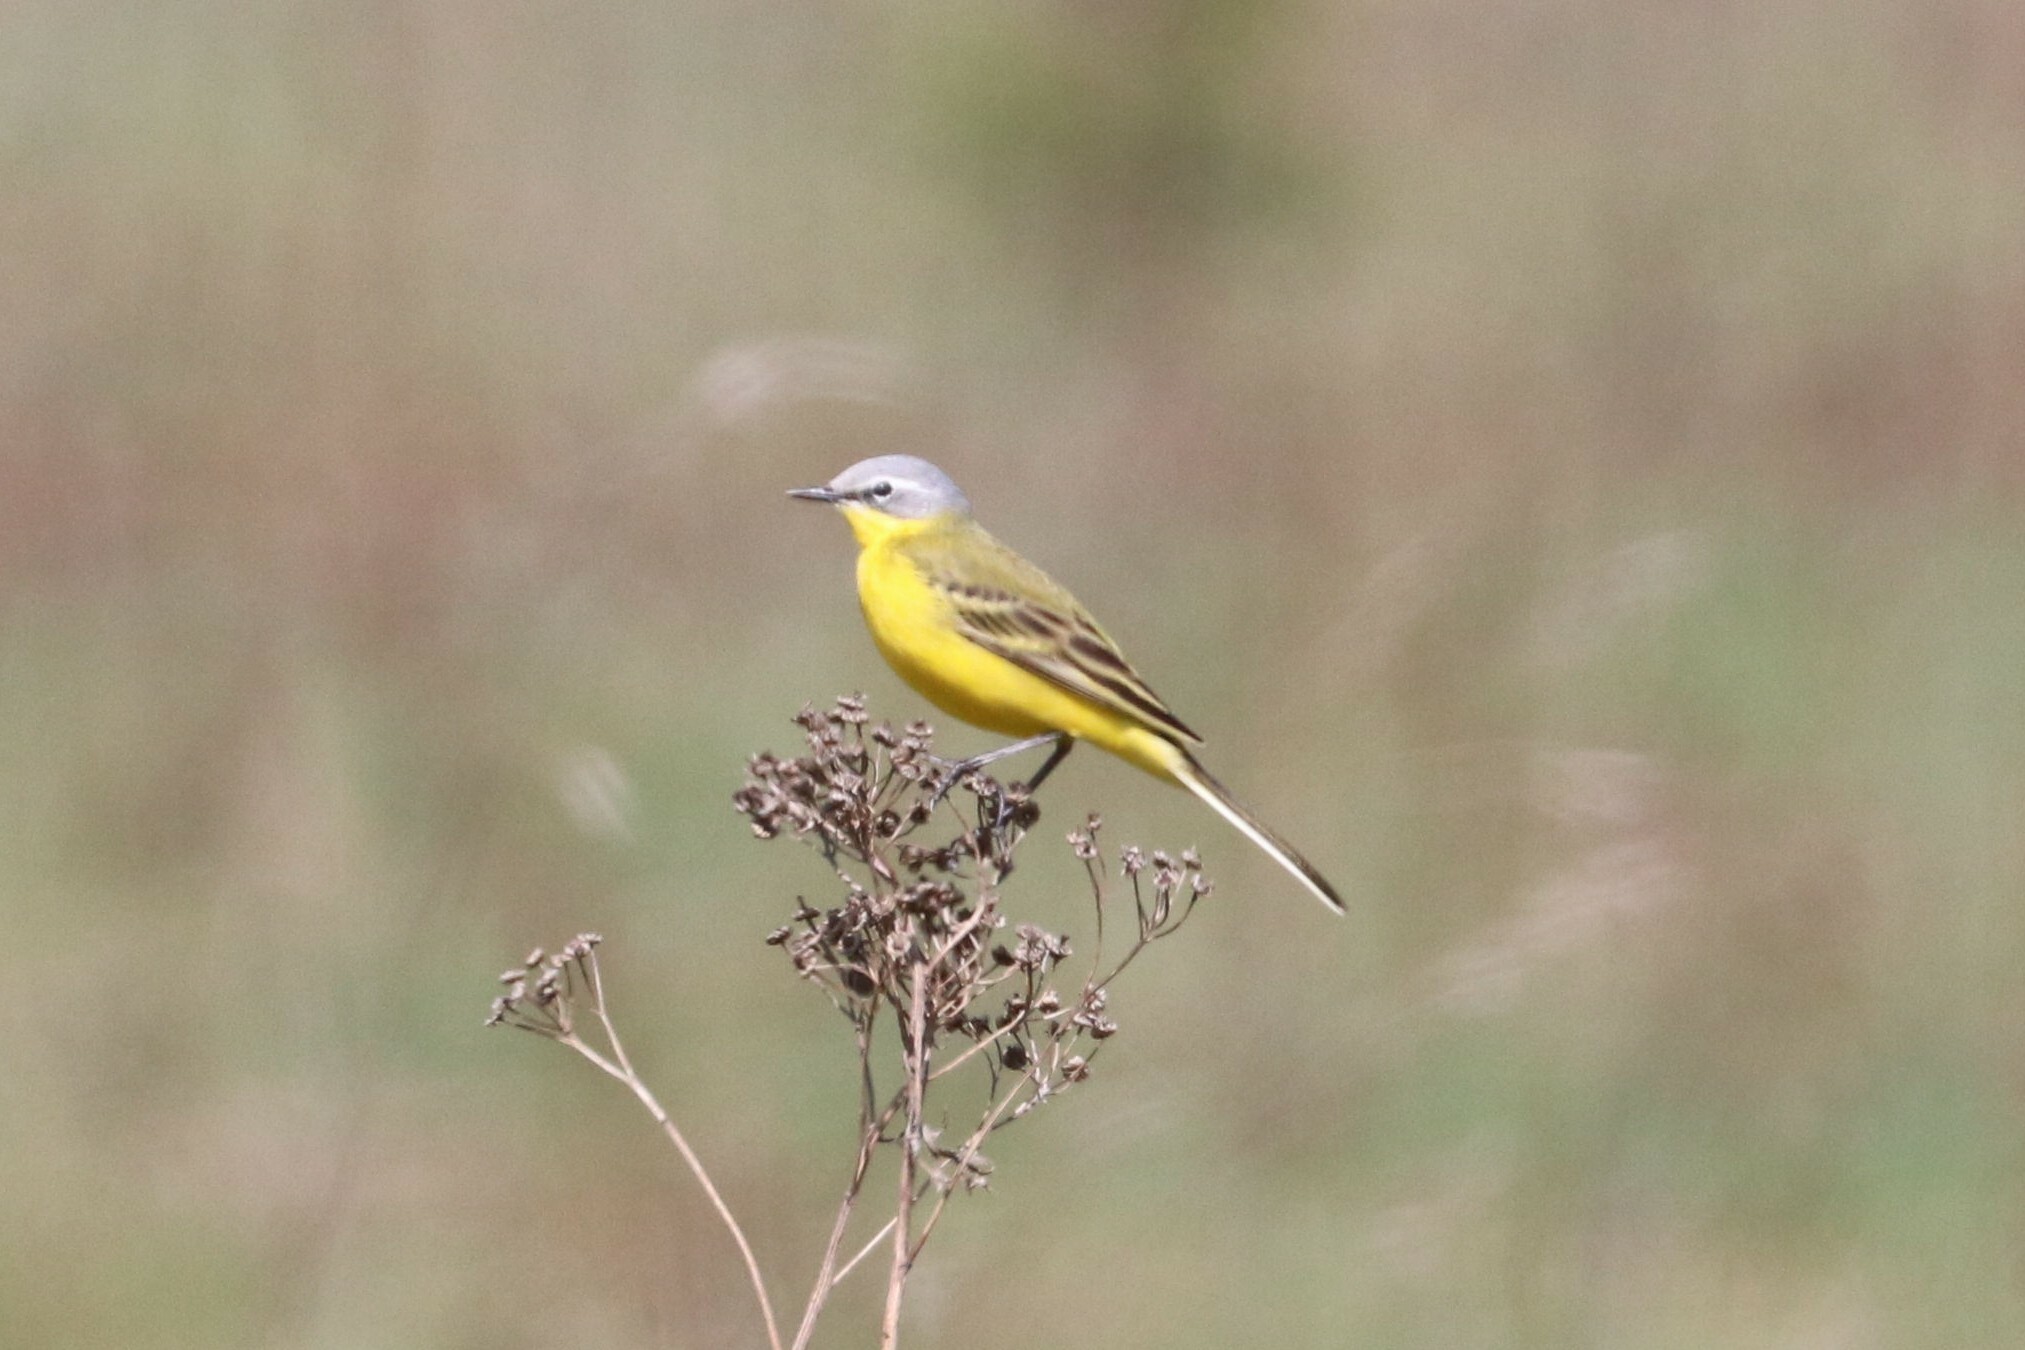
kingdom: Animalia
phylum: Chordata
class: Aves
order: Passeriformes
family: Motacillidae
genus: Motacilla
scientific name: Motacilla flava
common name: Western yellow wagtail
